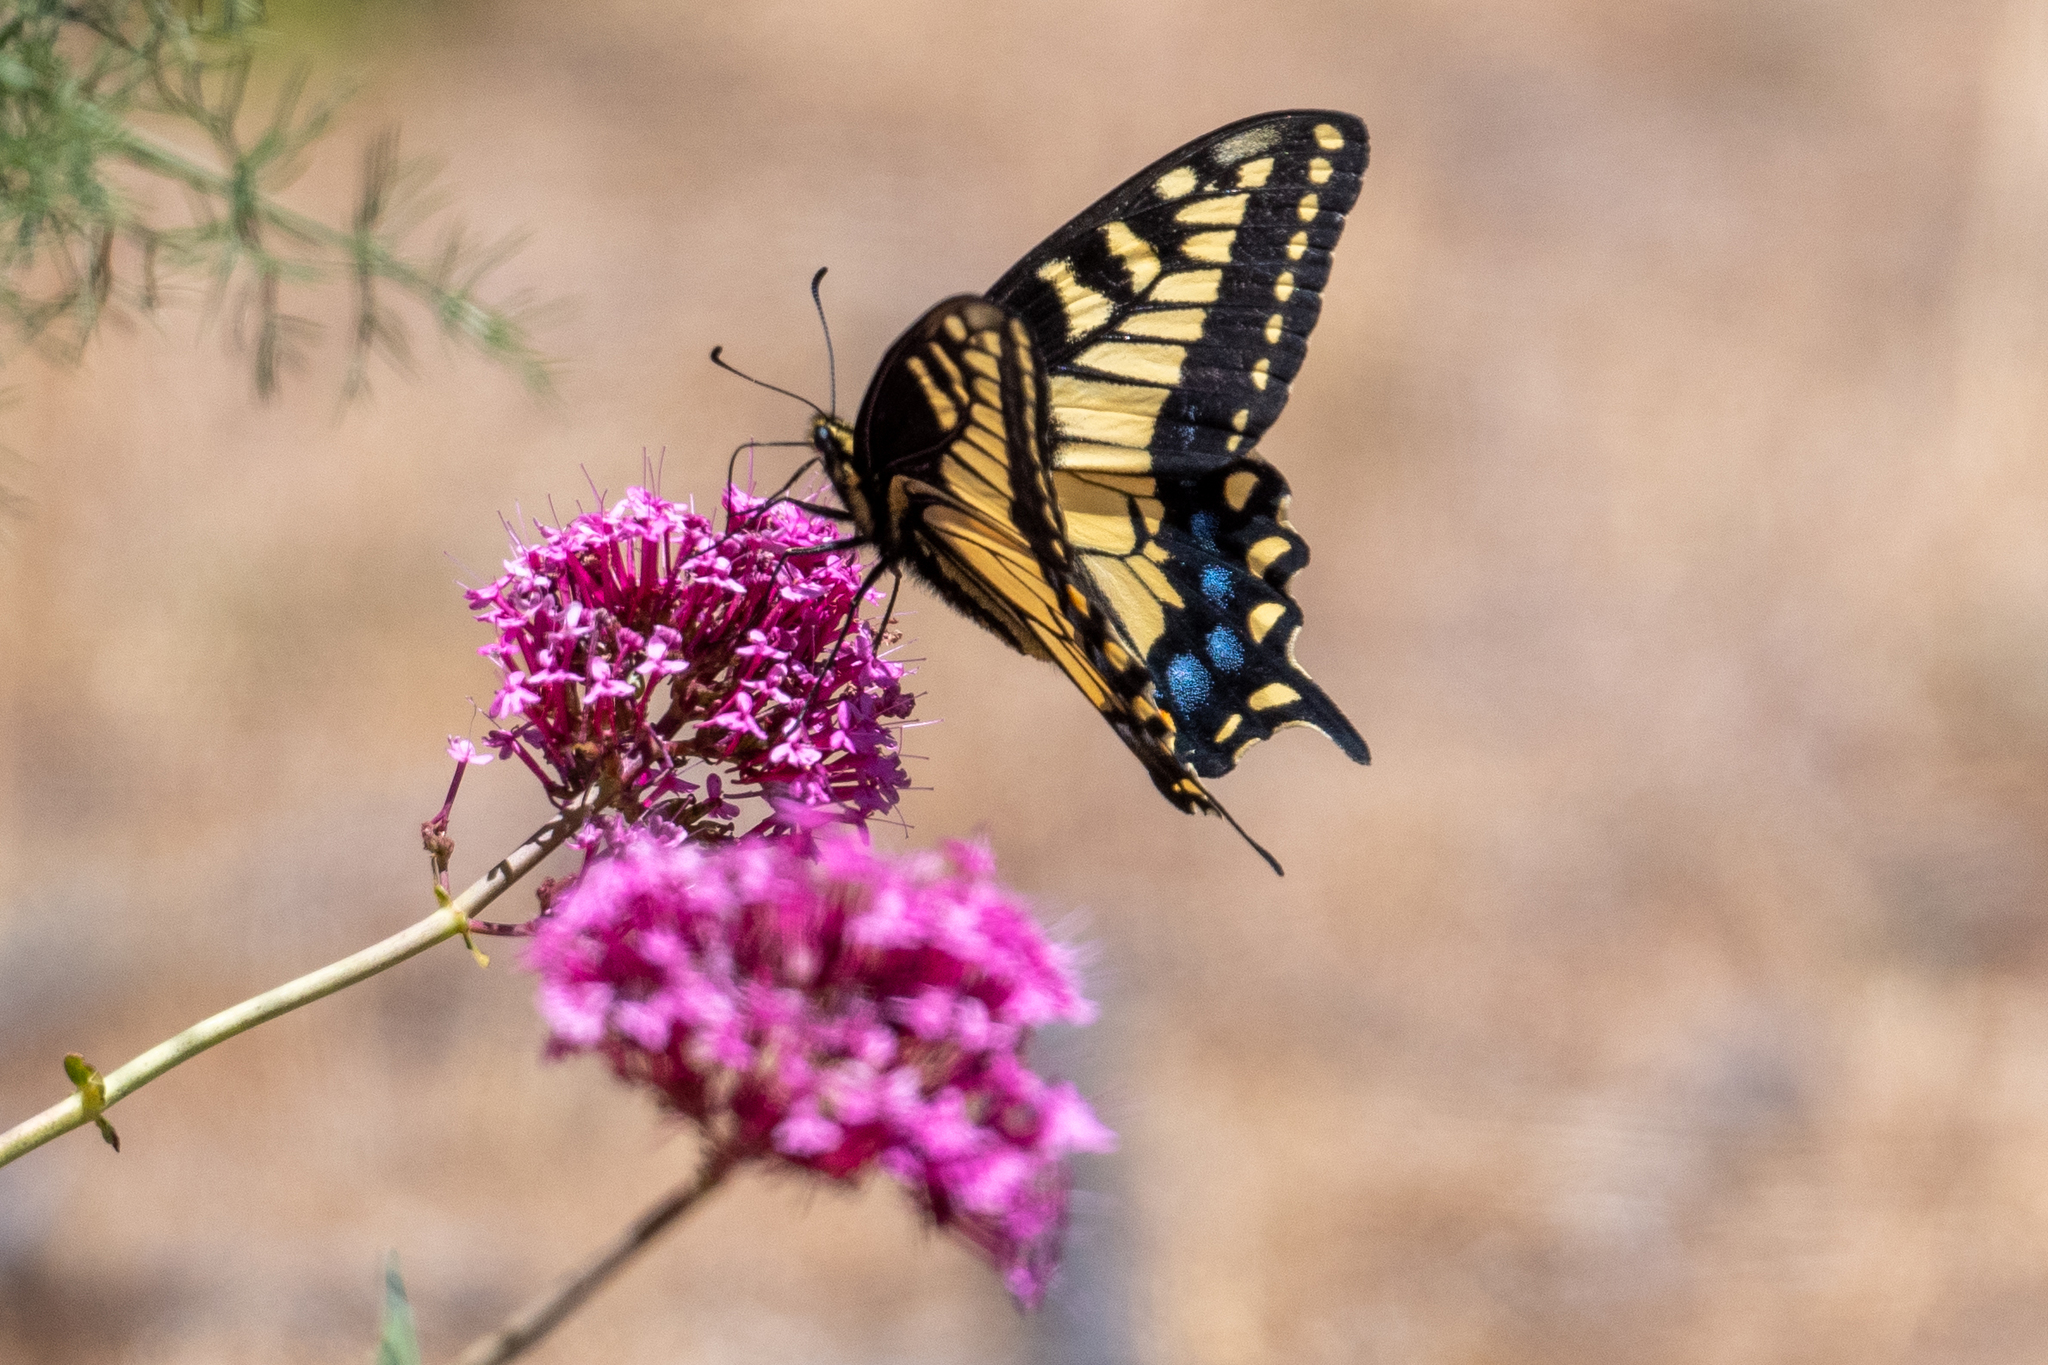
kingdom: Animalia
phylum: Arthropoda
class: Insecta
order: Lepidoptera
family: Papilionidae
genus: Papilio
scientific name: Papilio zelicaon
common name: Anise swallowtail
